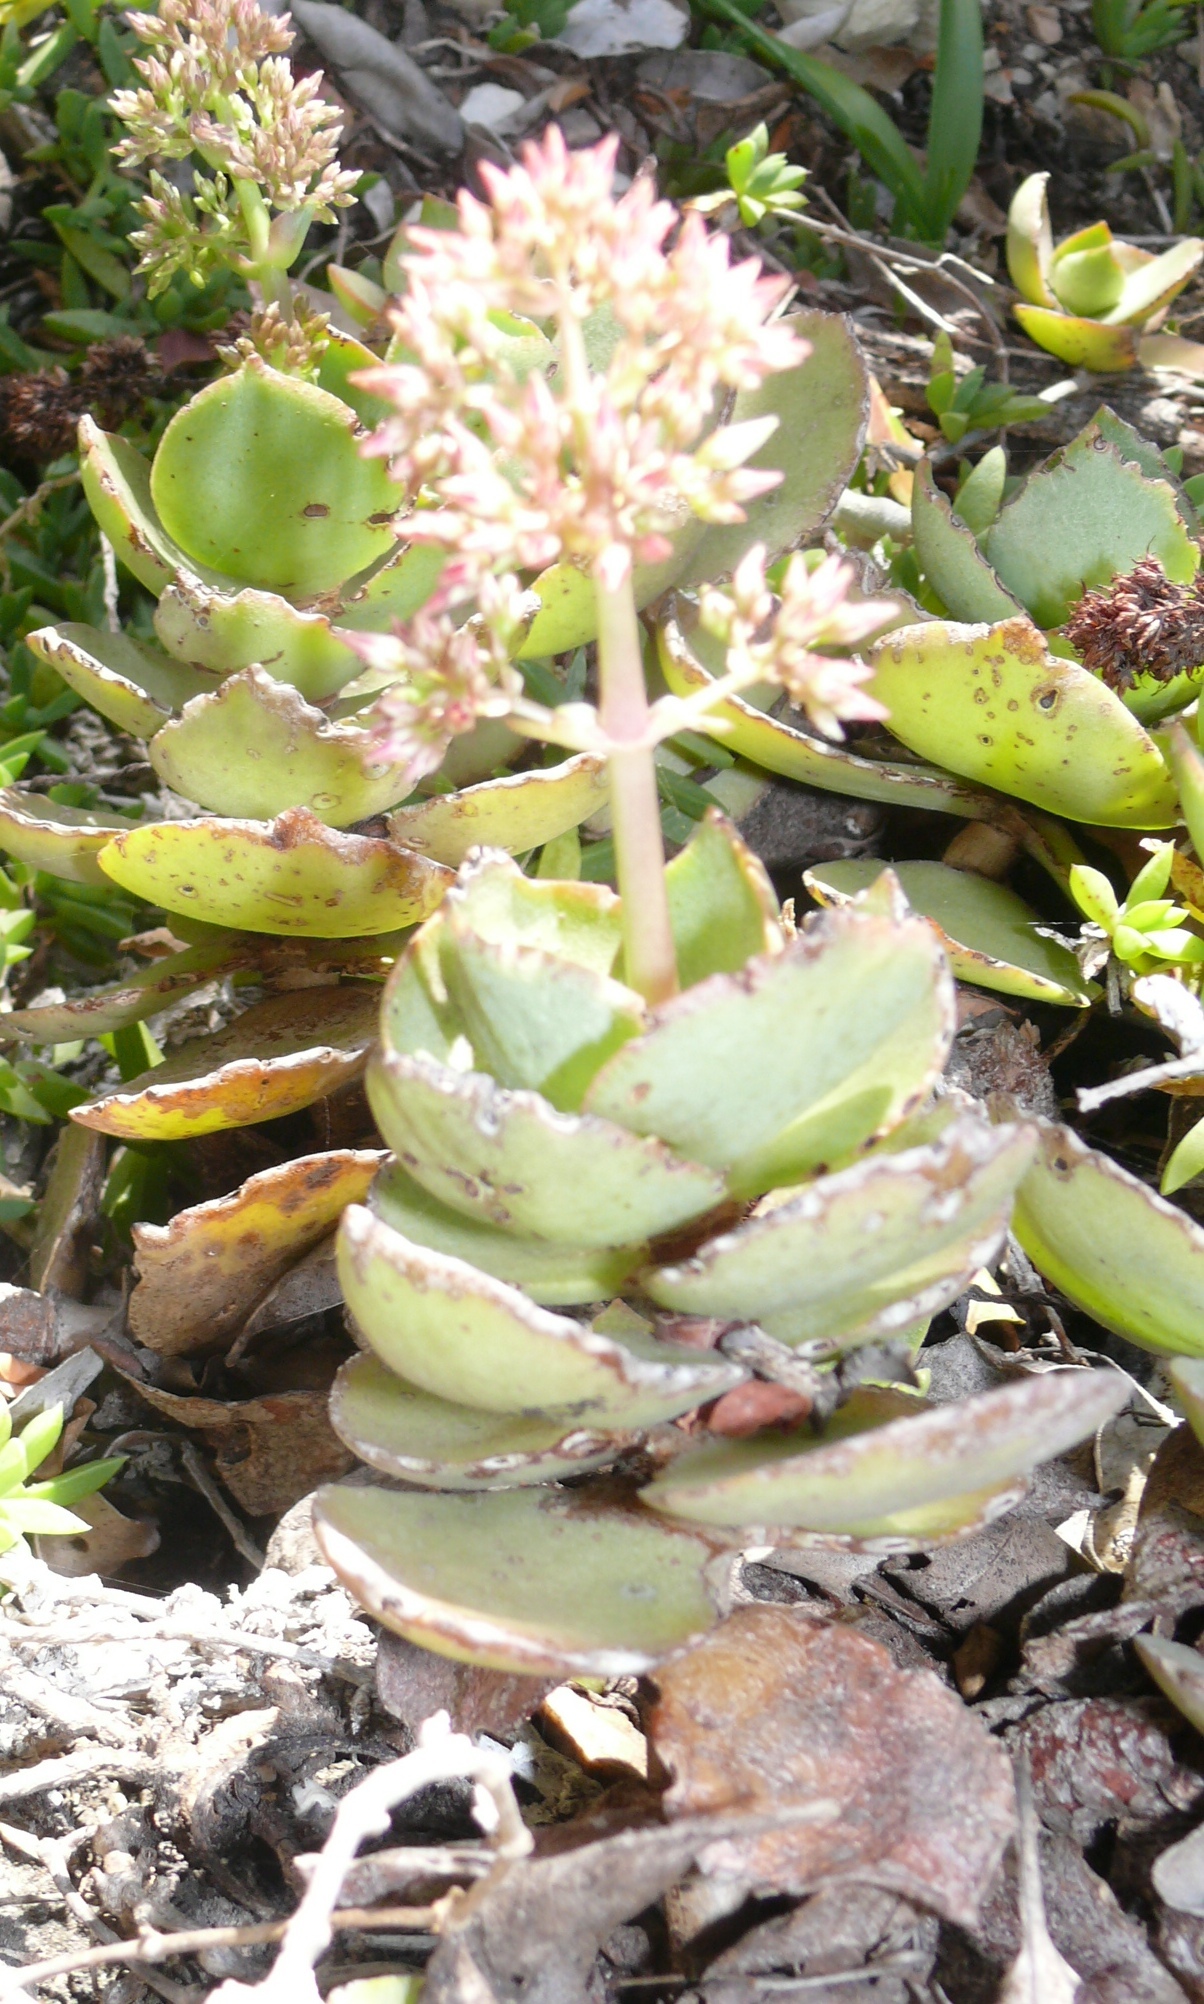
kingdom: Plantae
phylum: Tracheophyta
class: Magnoliopsida
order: Saxifragales
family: Crassulaceae
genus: Crassula
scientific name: Crassula lactea
